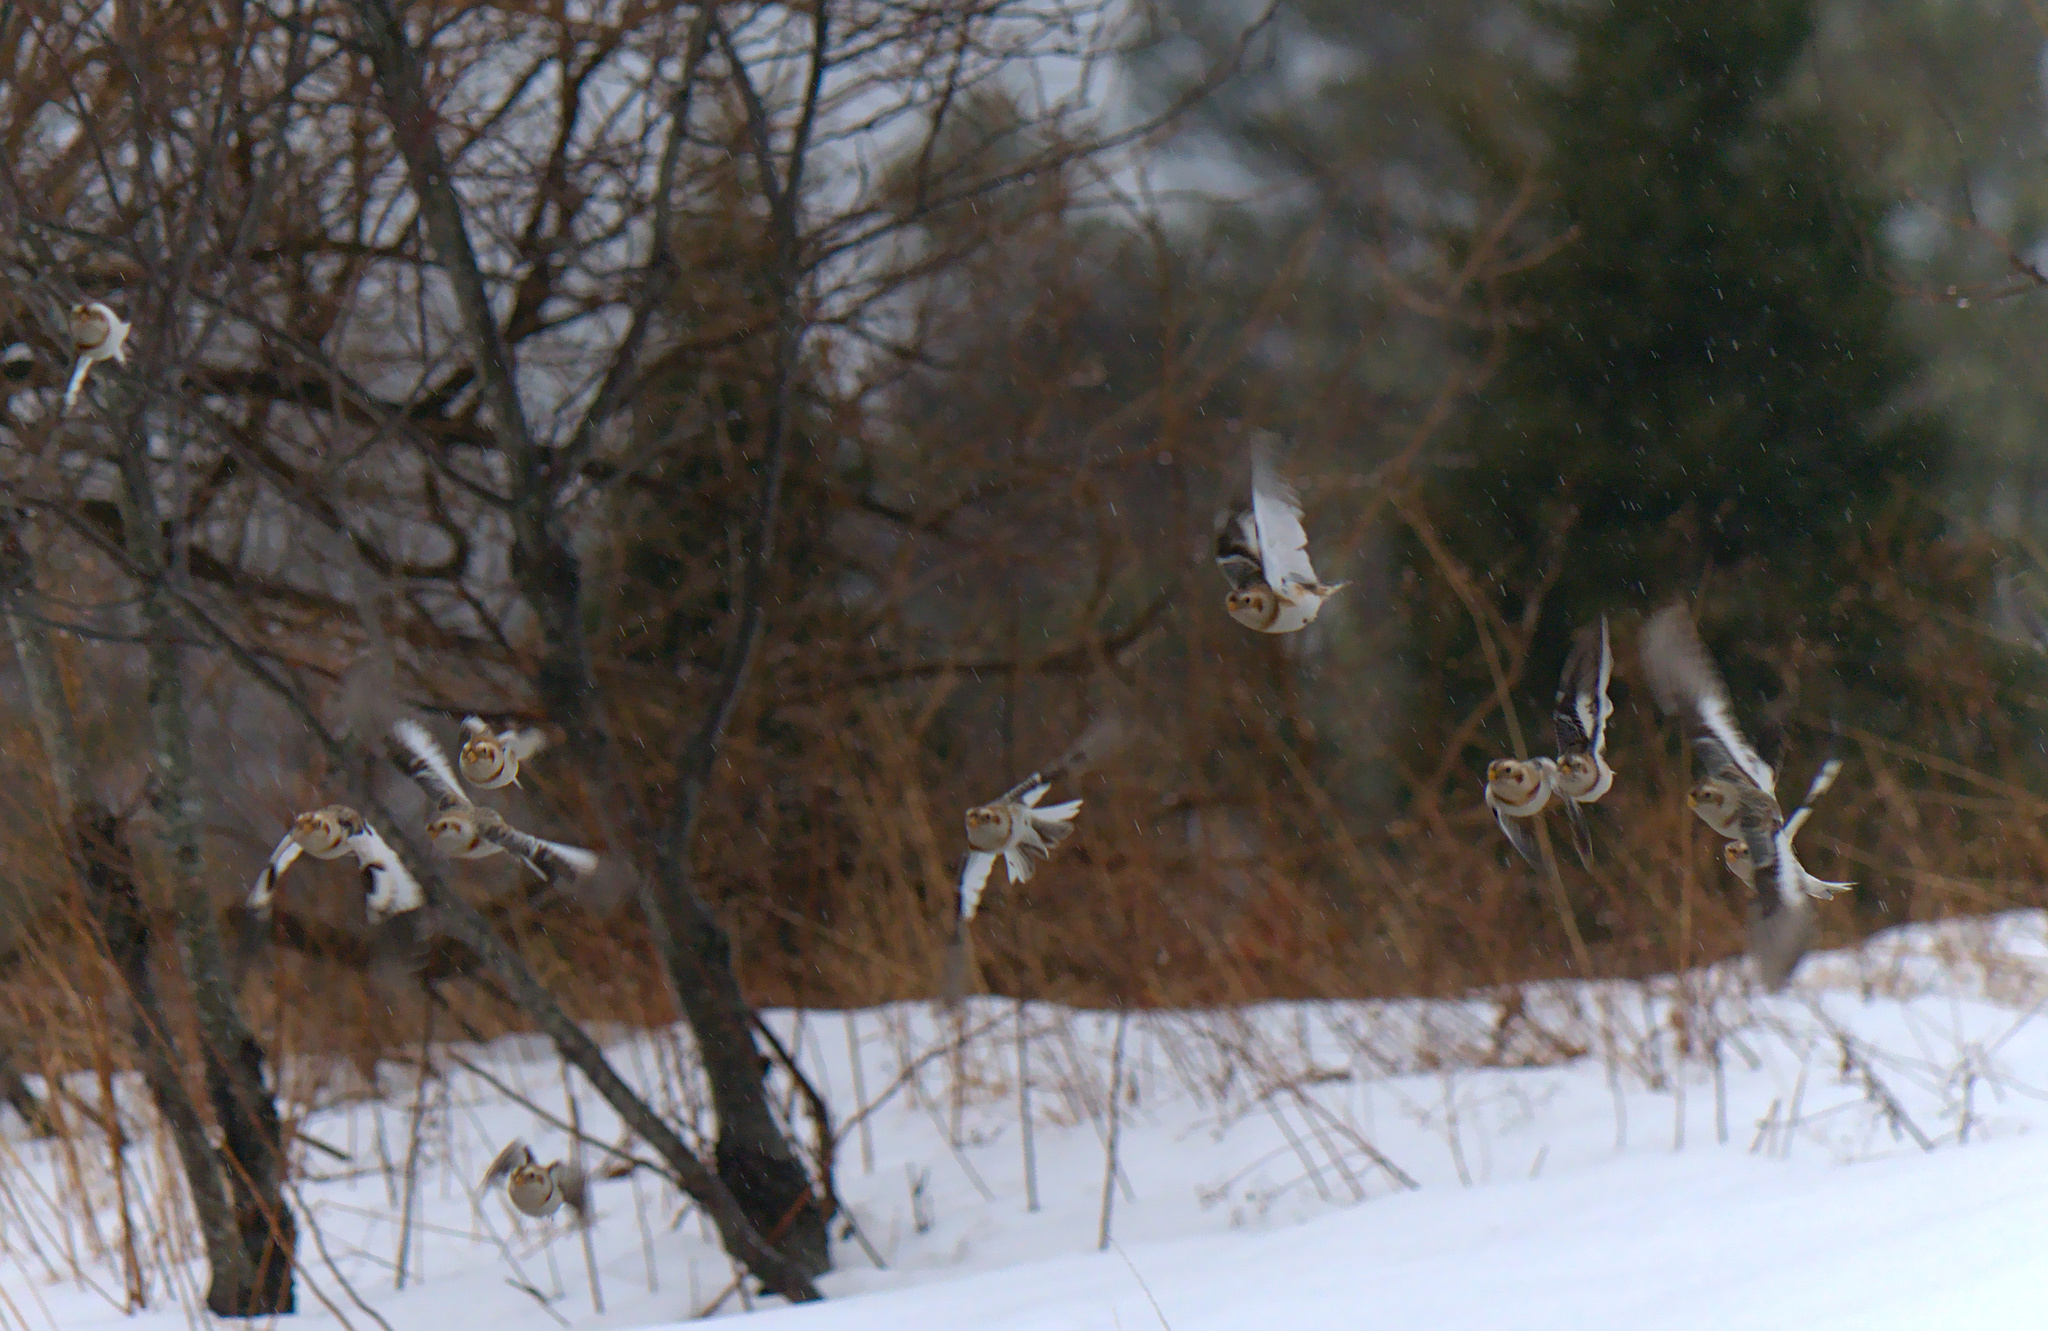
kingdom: Animalia
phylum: Chordata
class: Aves
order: Passeriformes
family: Calcariidae
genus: Plectrophenax
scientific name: Plectrophenax nivalis
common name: Snow bunting
